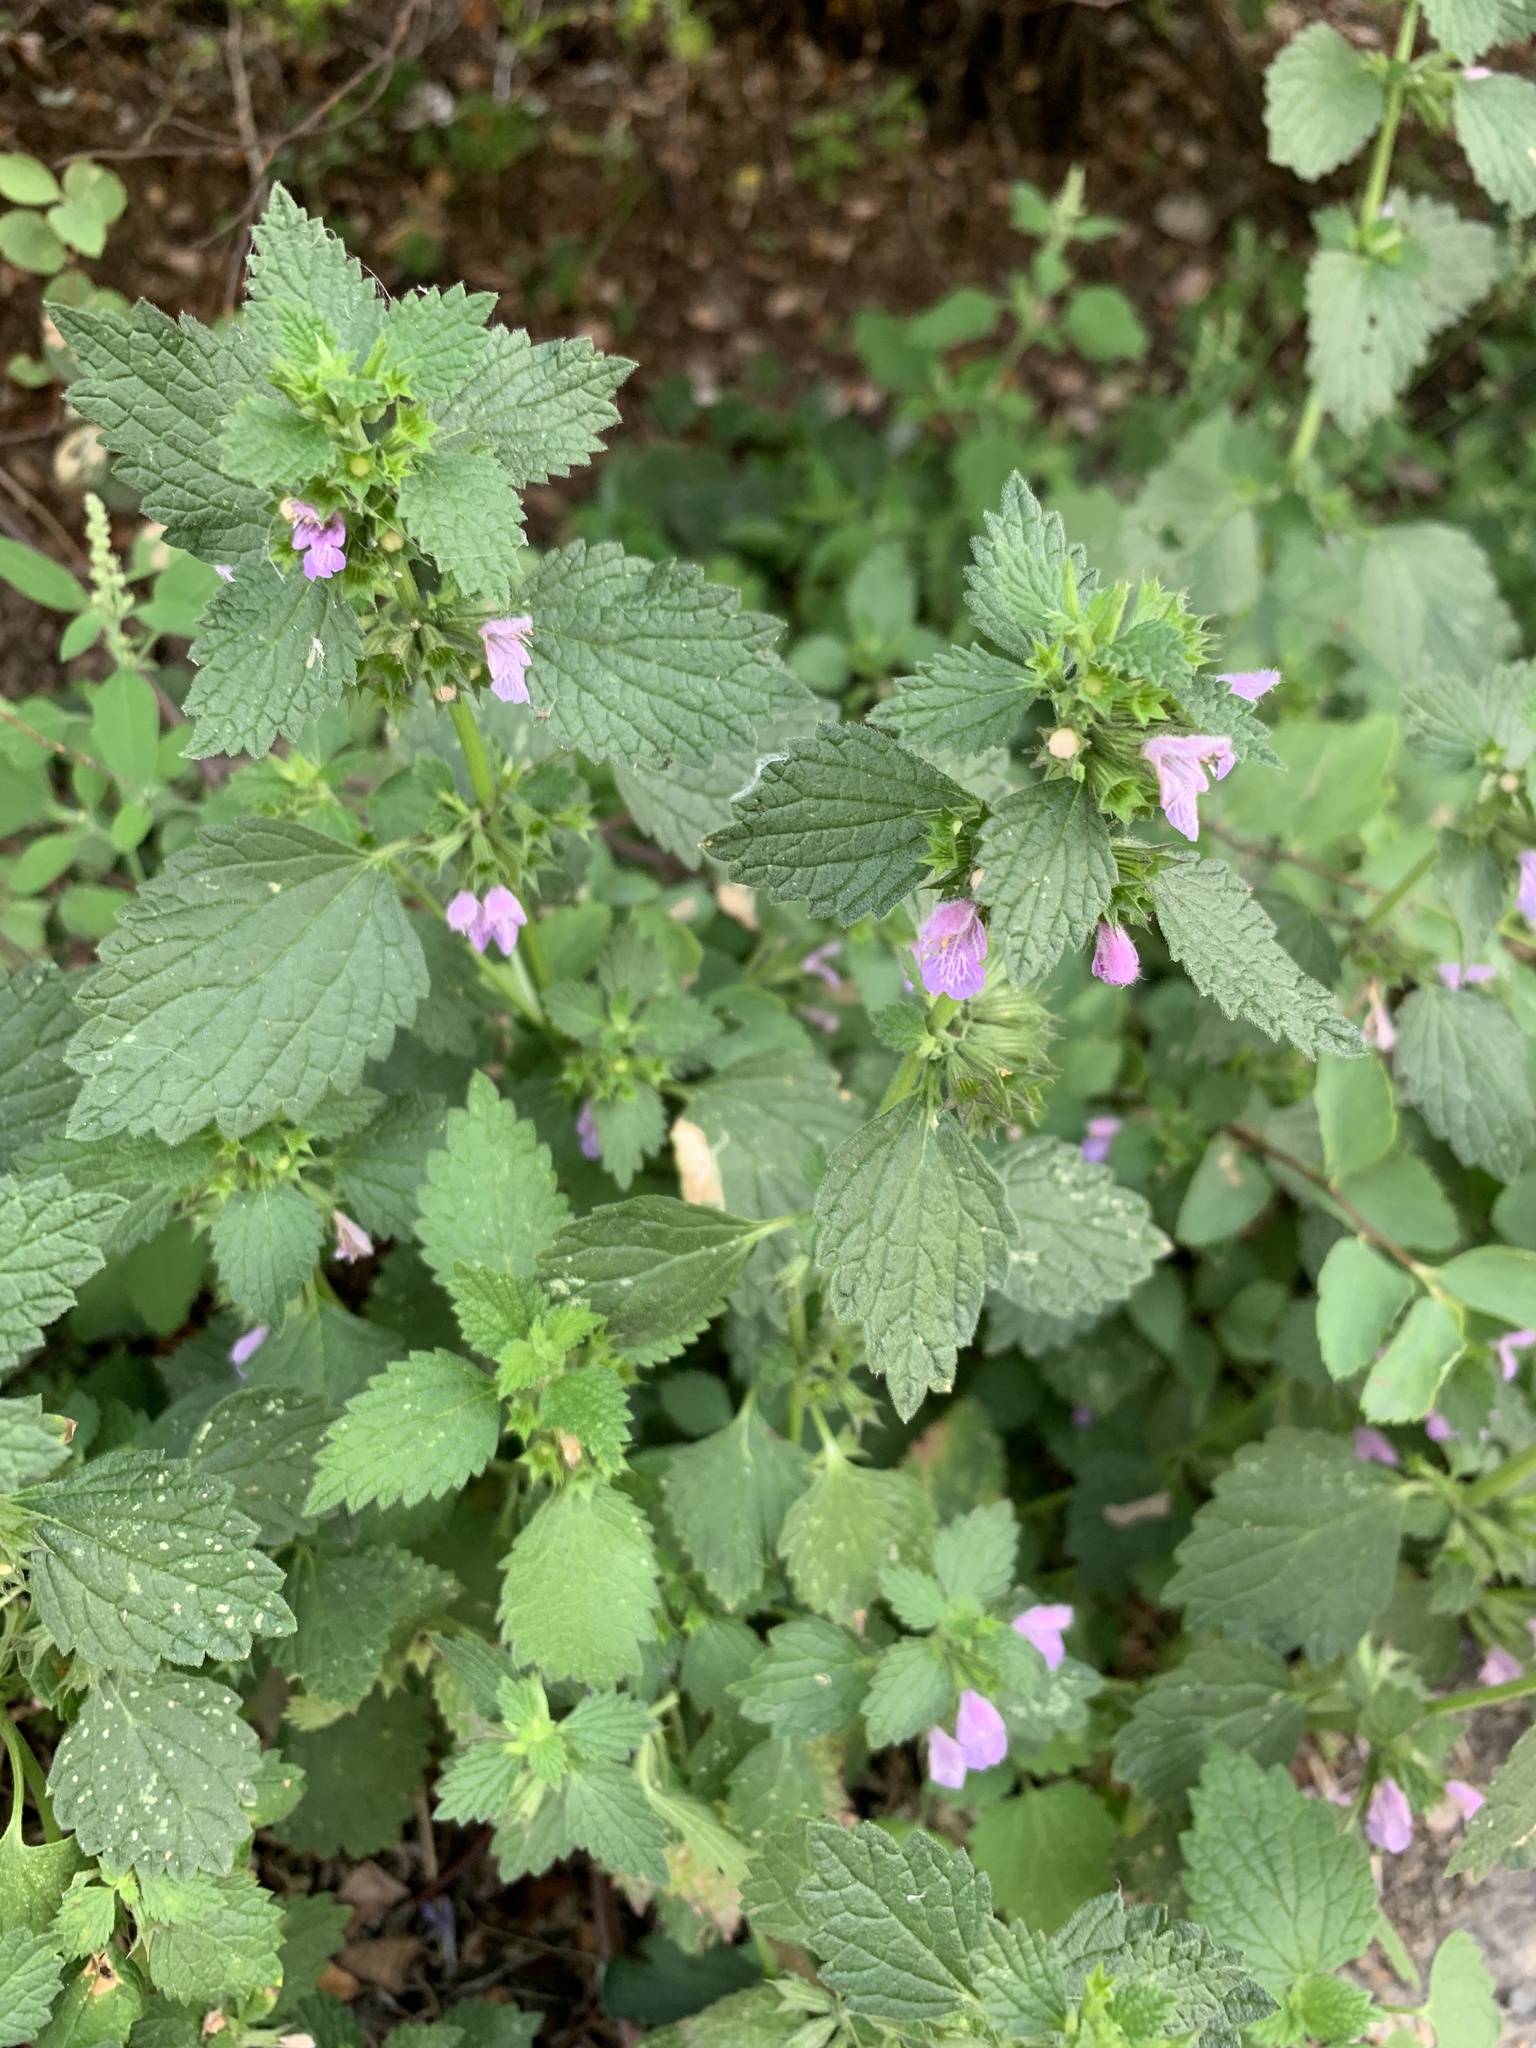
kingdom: Plantae
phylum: Tracheophyta
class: Magnoliopsida
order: Lamiales
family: Lamiaceae
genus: Ballota
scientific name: Ballota nigra
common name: Black horehound
